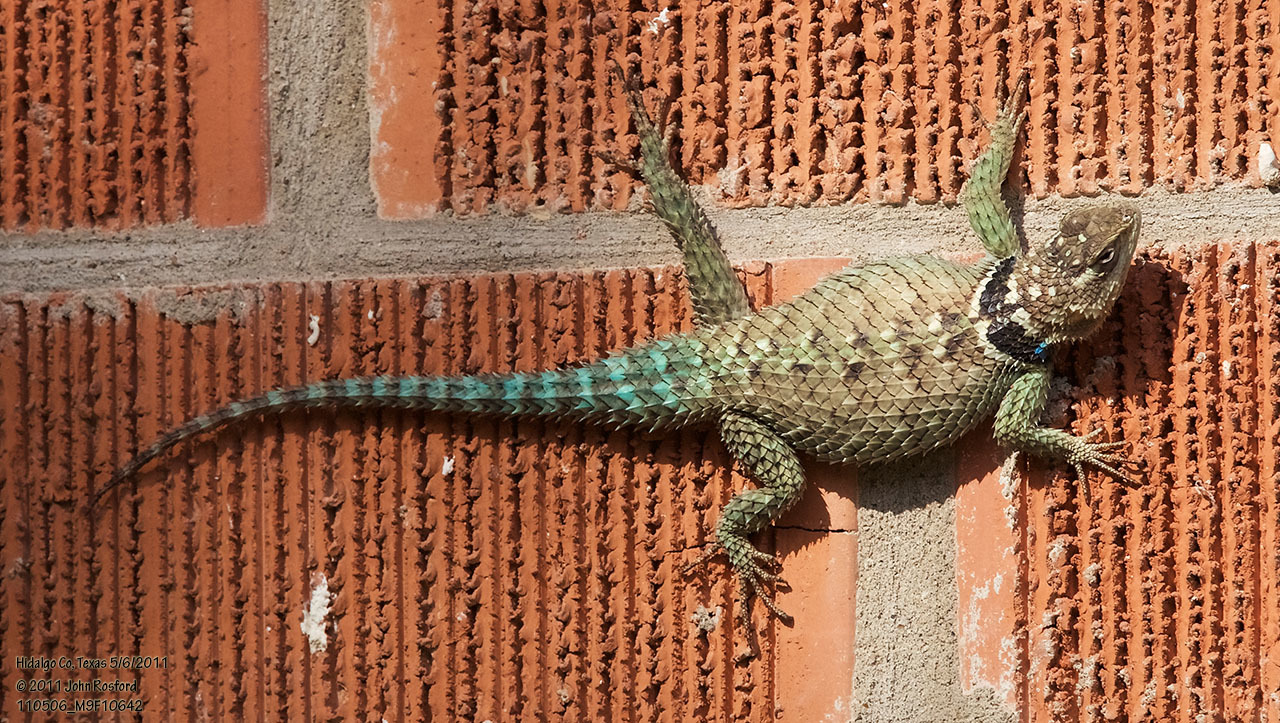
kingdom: Animalia
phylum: Chordata
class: Squamata
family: Phrynosomatidae
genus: Sceloporus
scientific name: Sceloporus cyanogenys
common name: Blue spiny lizard
